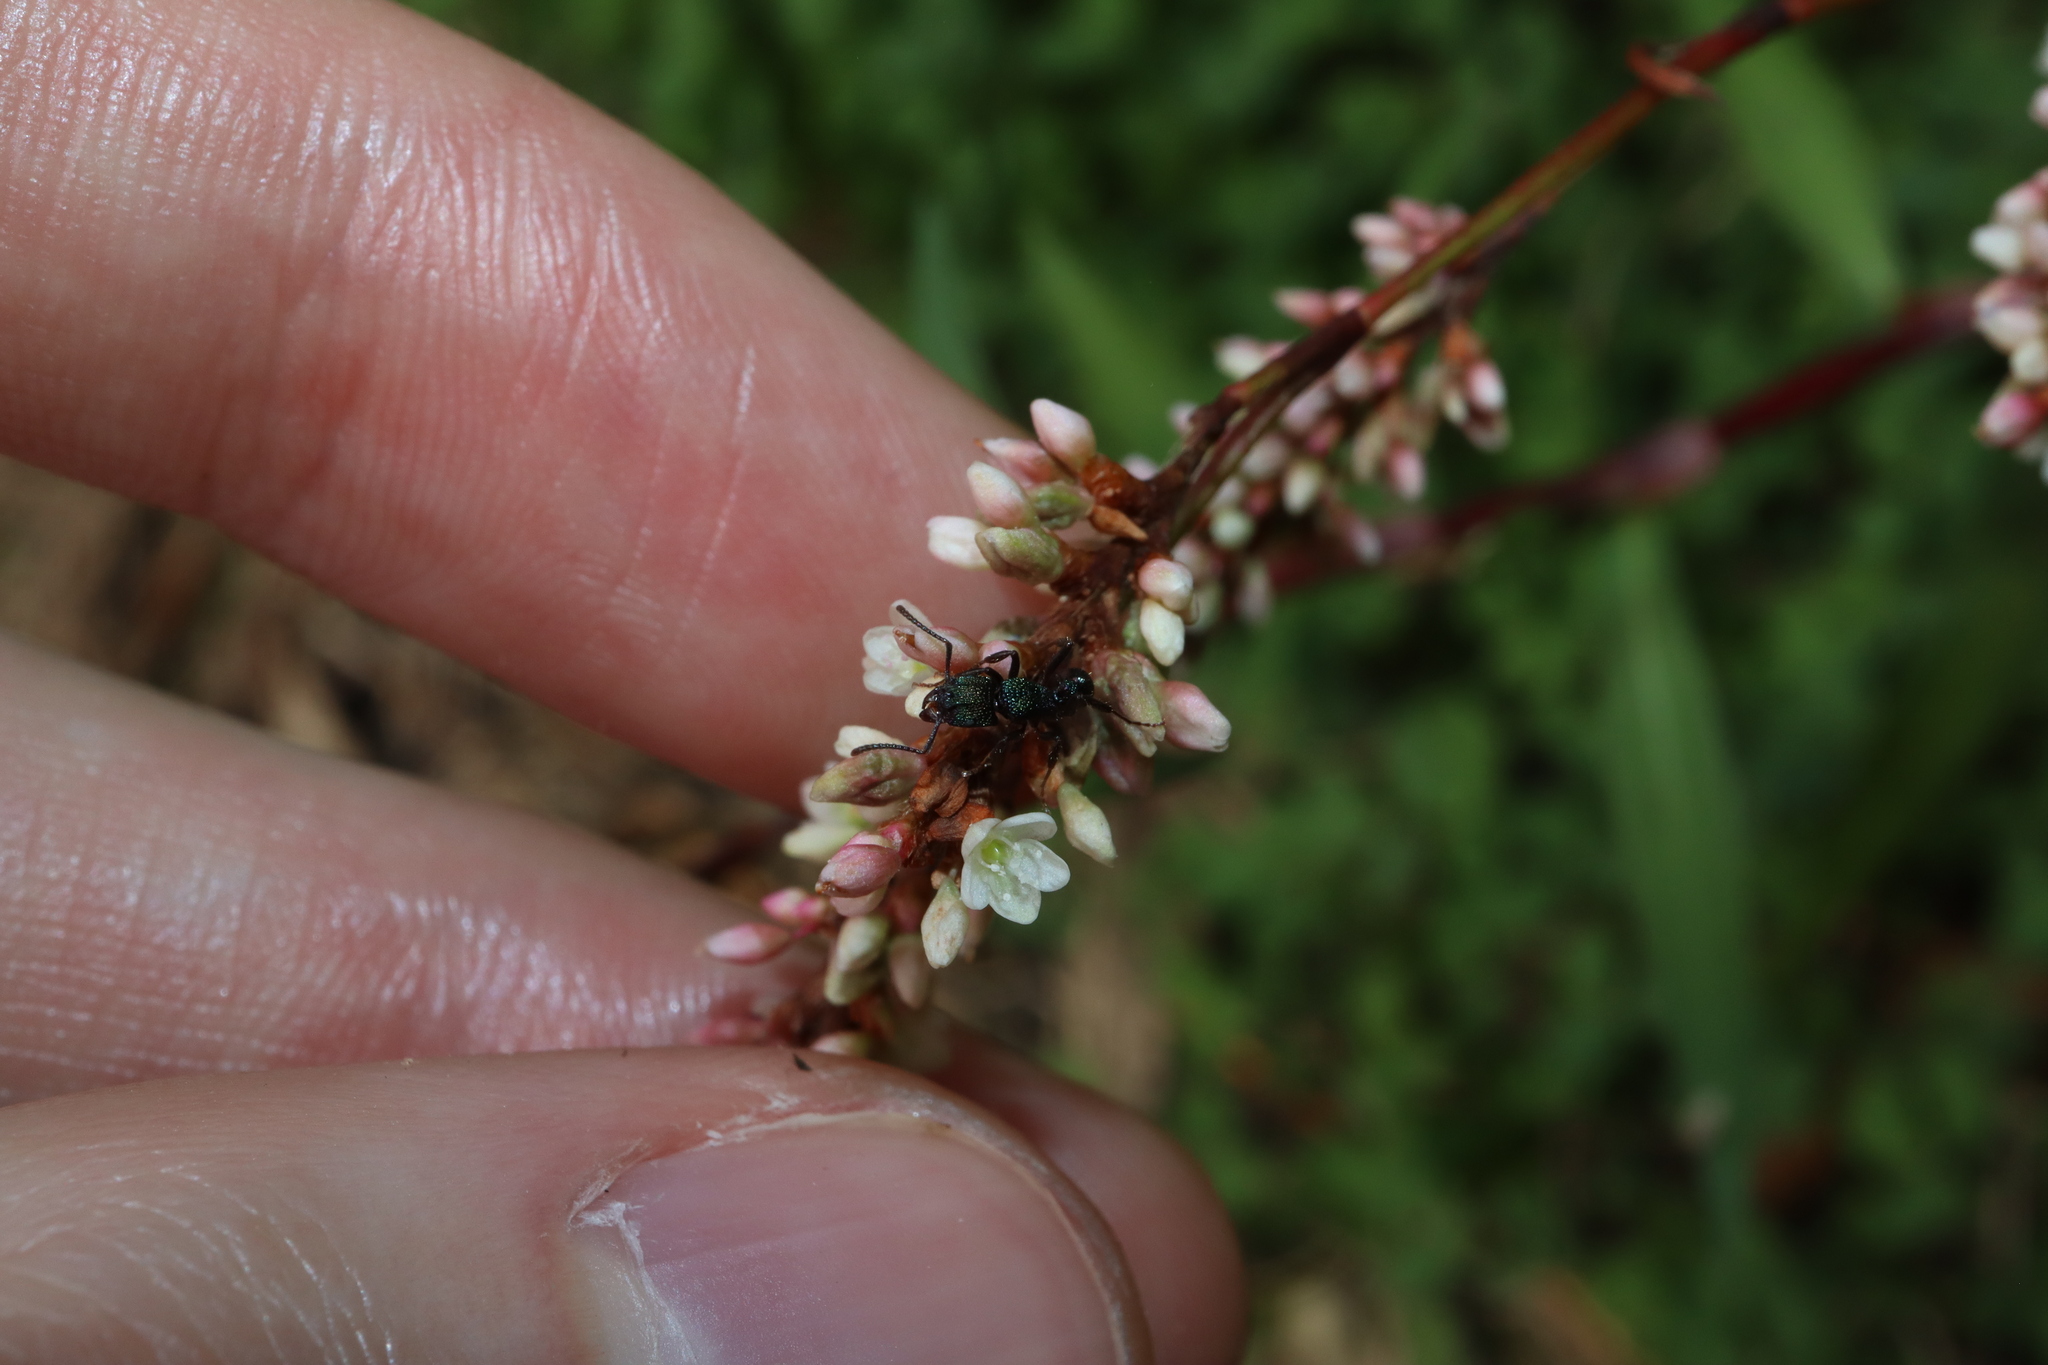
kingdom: Animalia
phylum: Arthropoda
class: Insecta
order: Hymenoptera
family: Formicidae
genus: Rhytidoponera
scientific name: Rhytidoponera metallica
